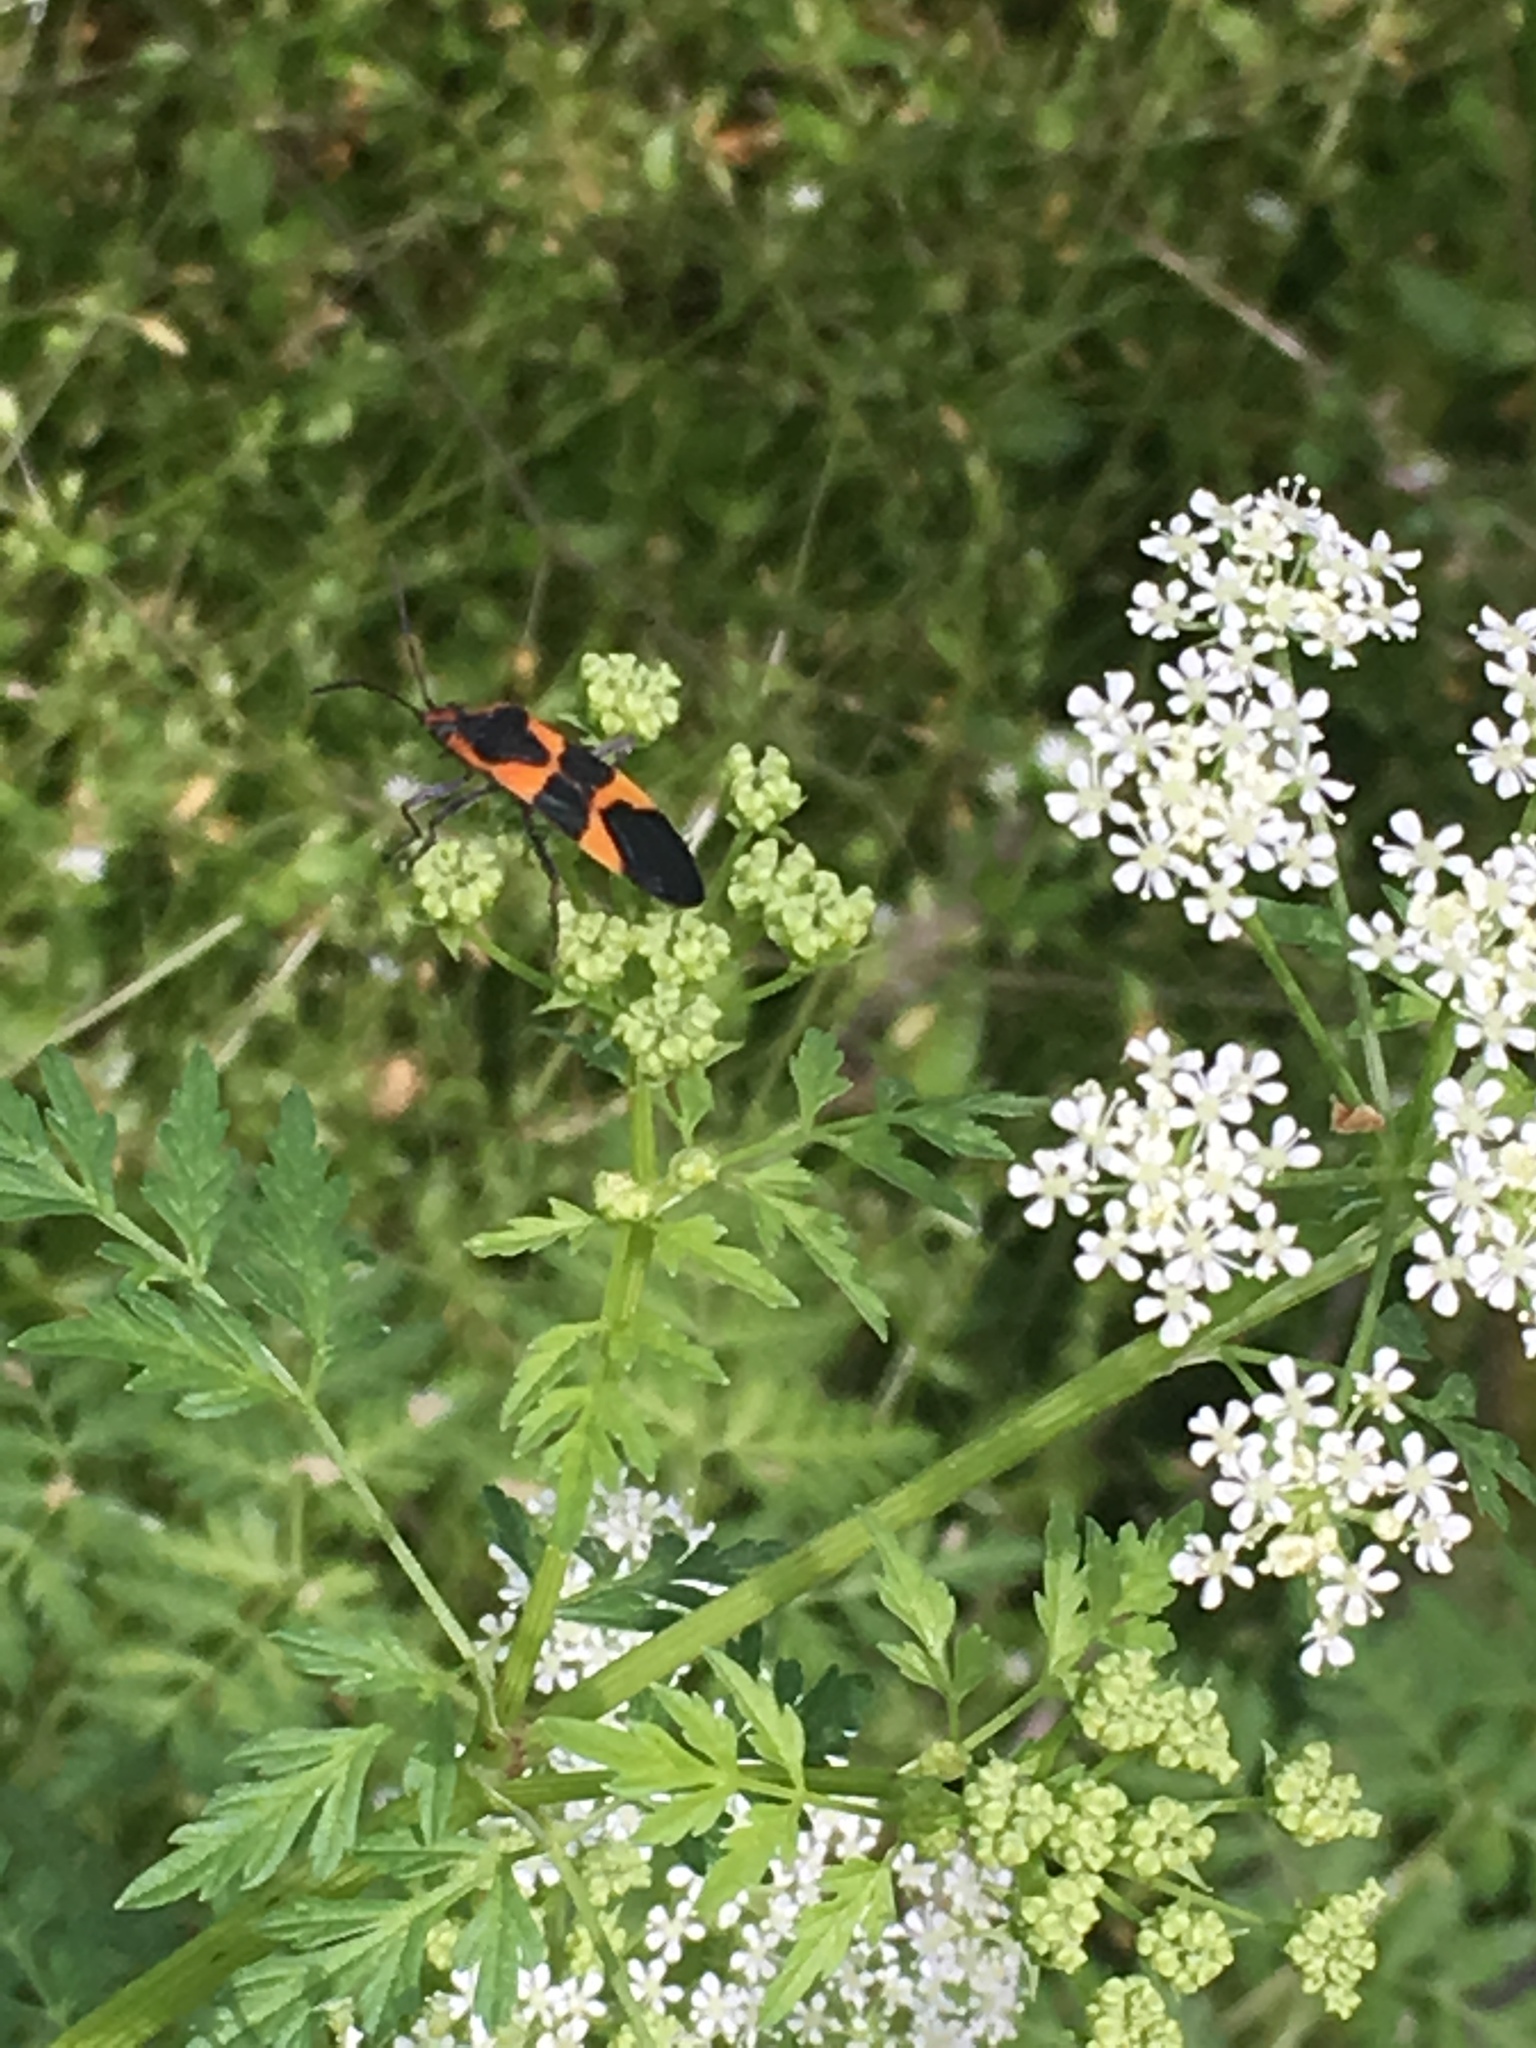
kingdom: Animalia
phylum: Arthropoda
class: Insecta
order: Hemiptera
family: Lygaeidae
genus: Oncopeltus
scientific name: Oncopeltus fasciatus
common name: Large milkweed bug
